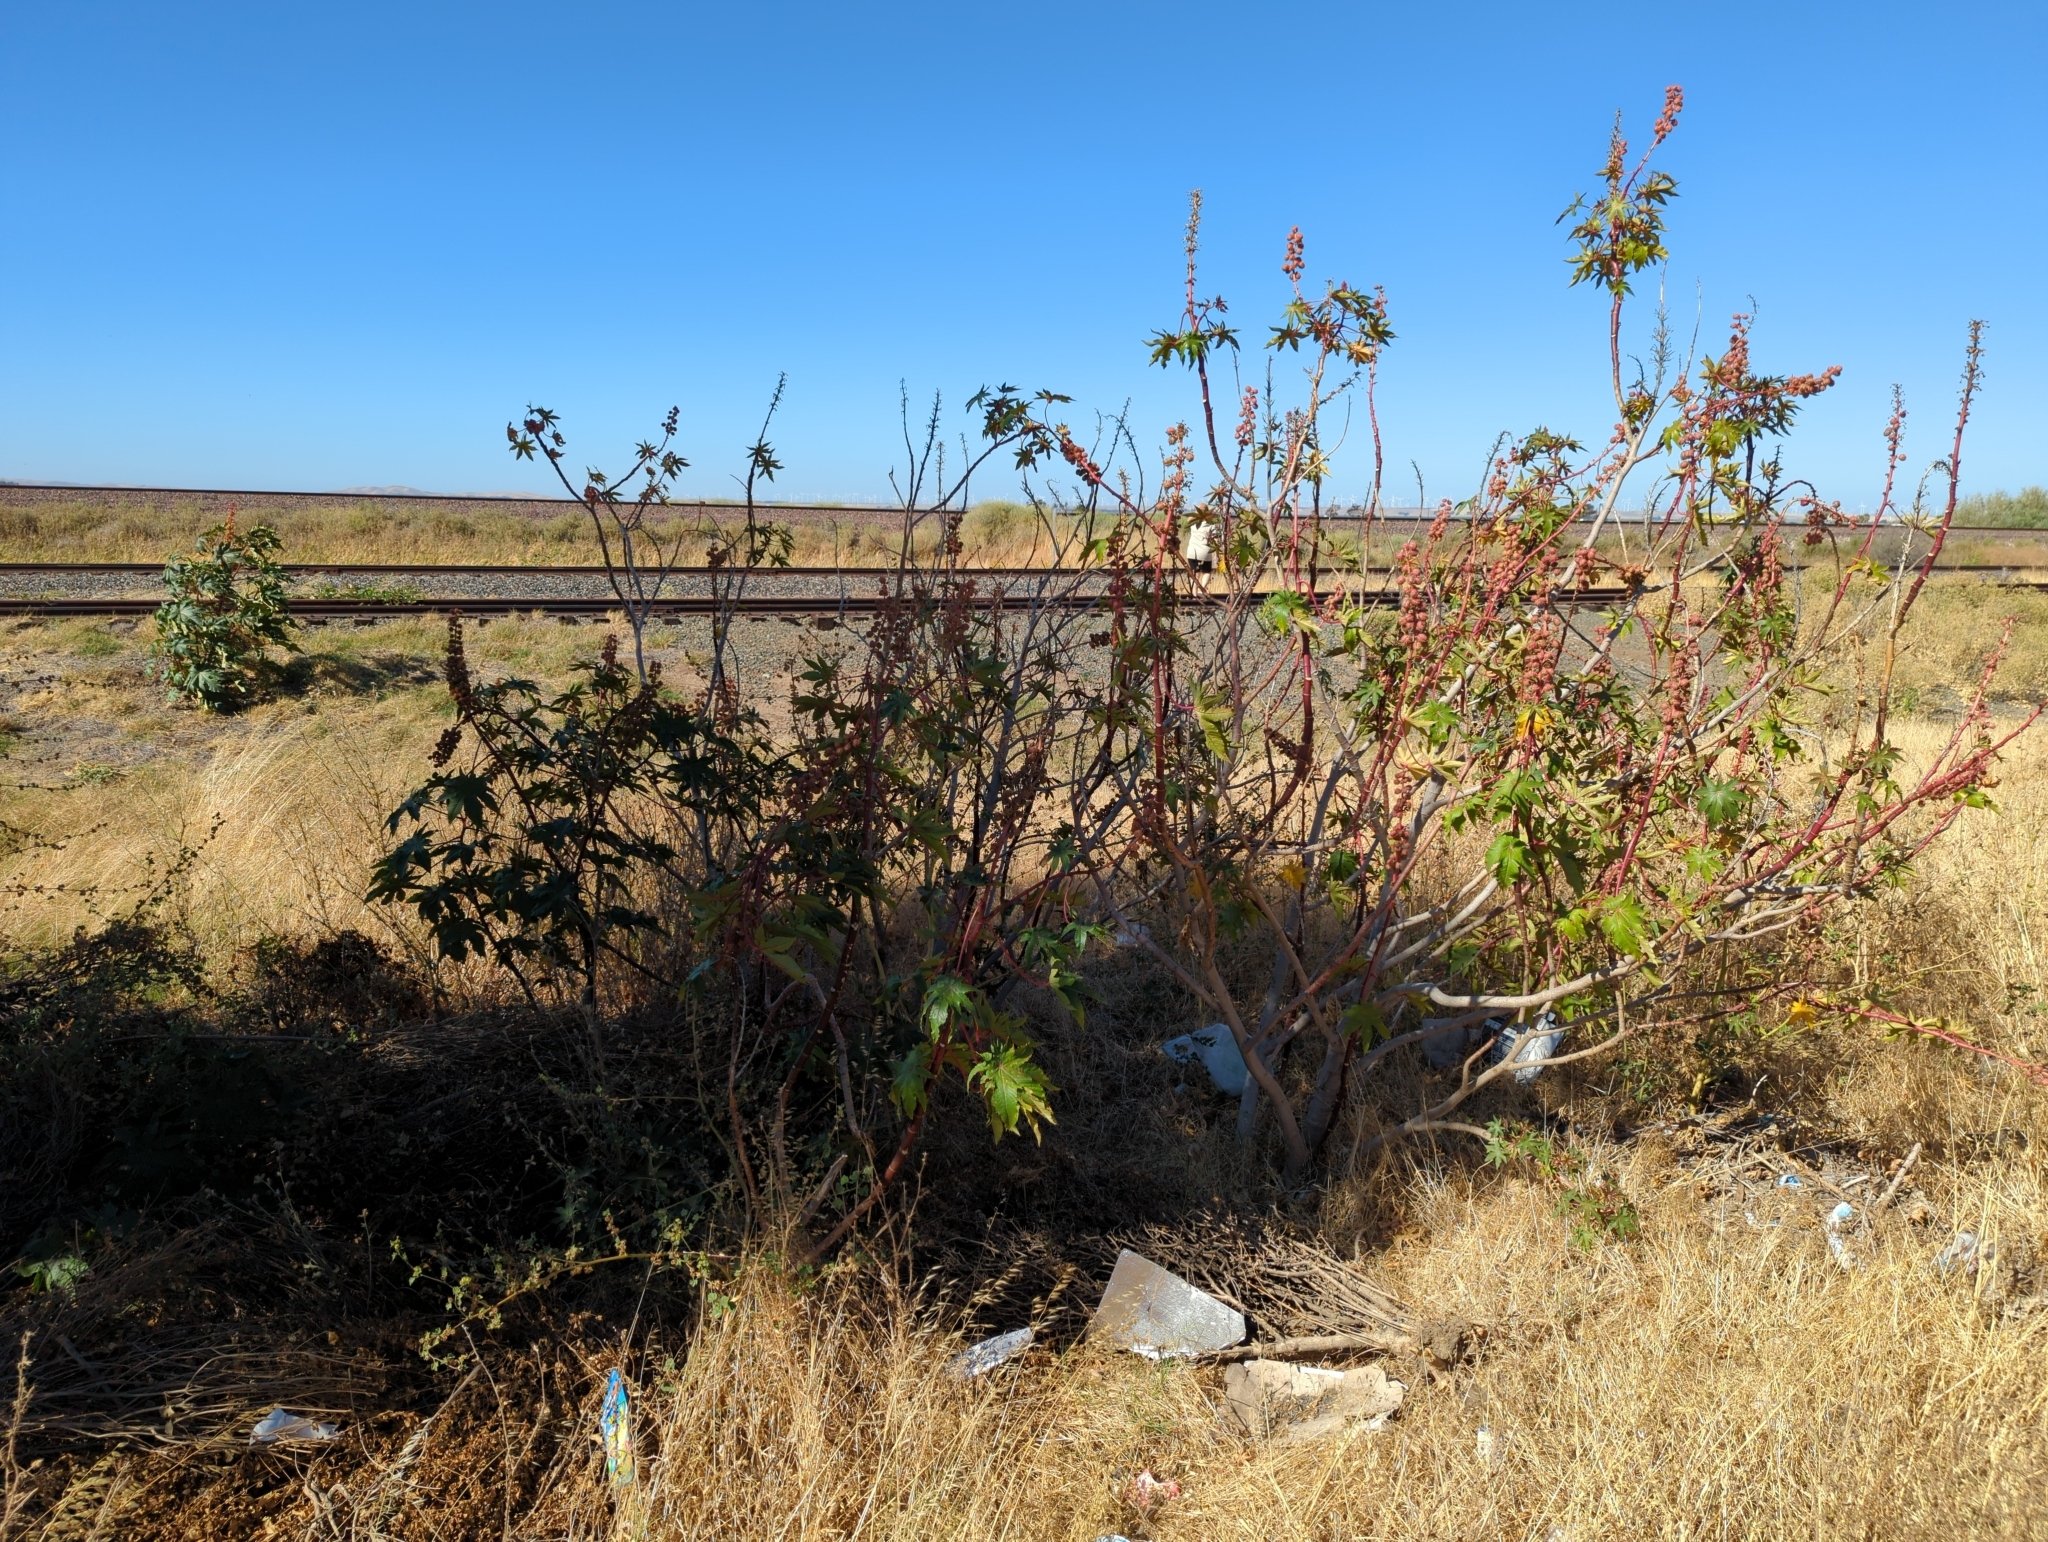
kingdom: Plantae
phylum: Tracheophyta
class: Magnoliopsida
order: Malpighiales
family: Euphorbiaceae
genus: Ricinus
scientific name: Ricinus communis
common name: Castor-oil-plant
